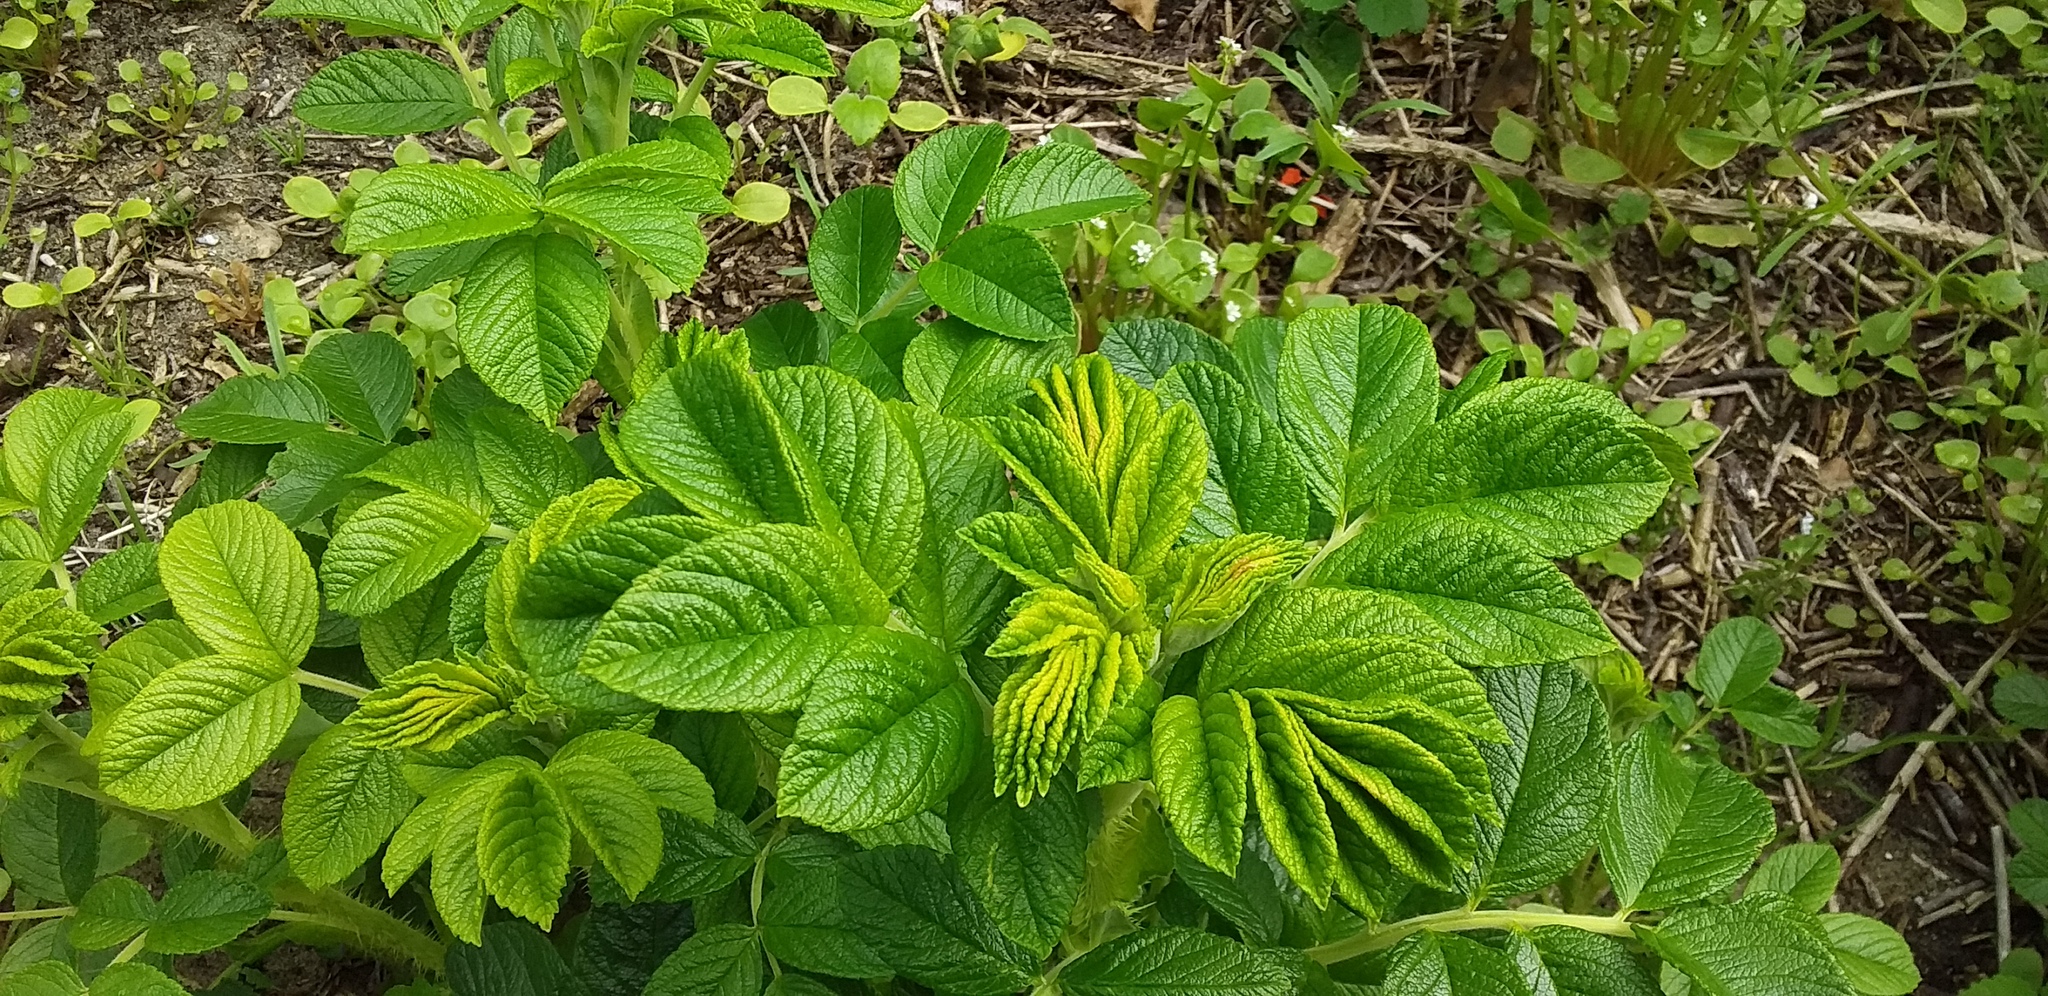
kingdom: Plantae
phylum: Tracheophyta
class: Magnoliopsida
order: Rosales
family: Rosaceae
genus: Rosa
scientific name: Rosa rugosa
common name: Japanese rose
